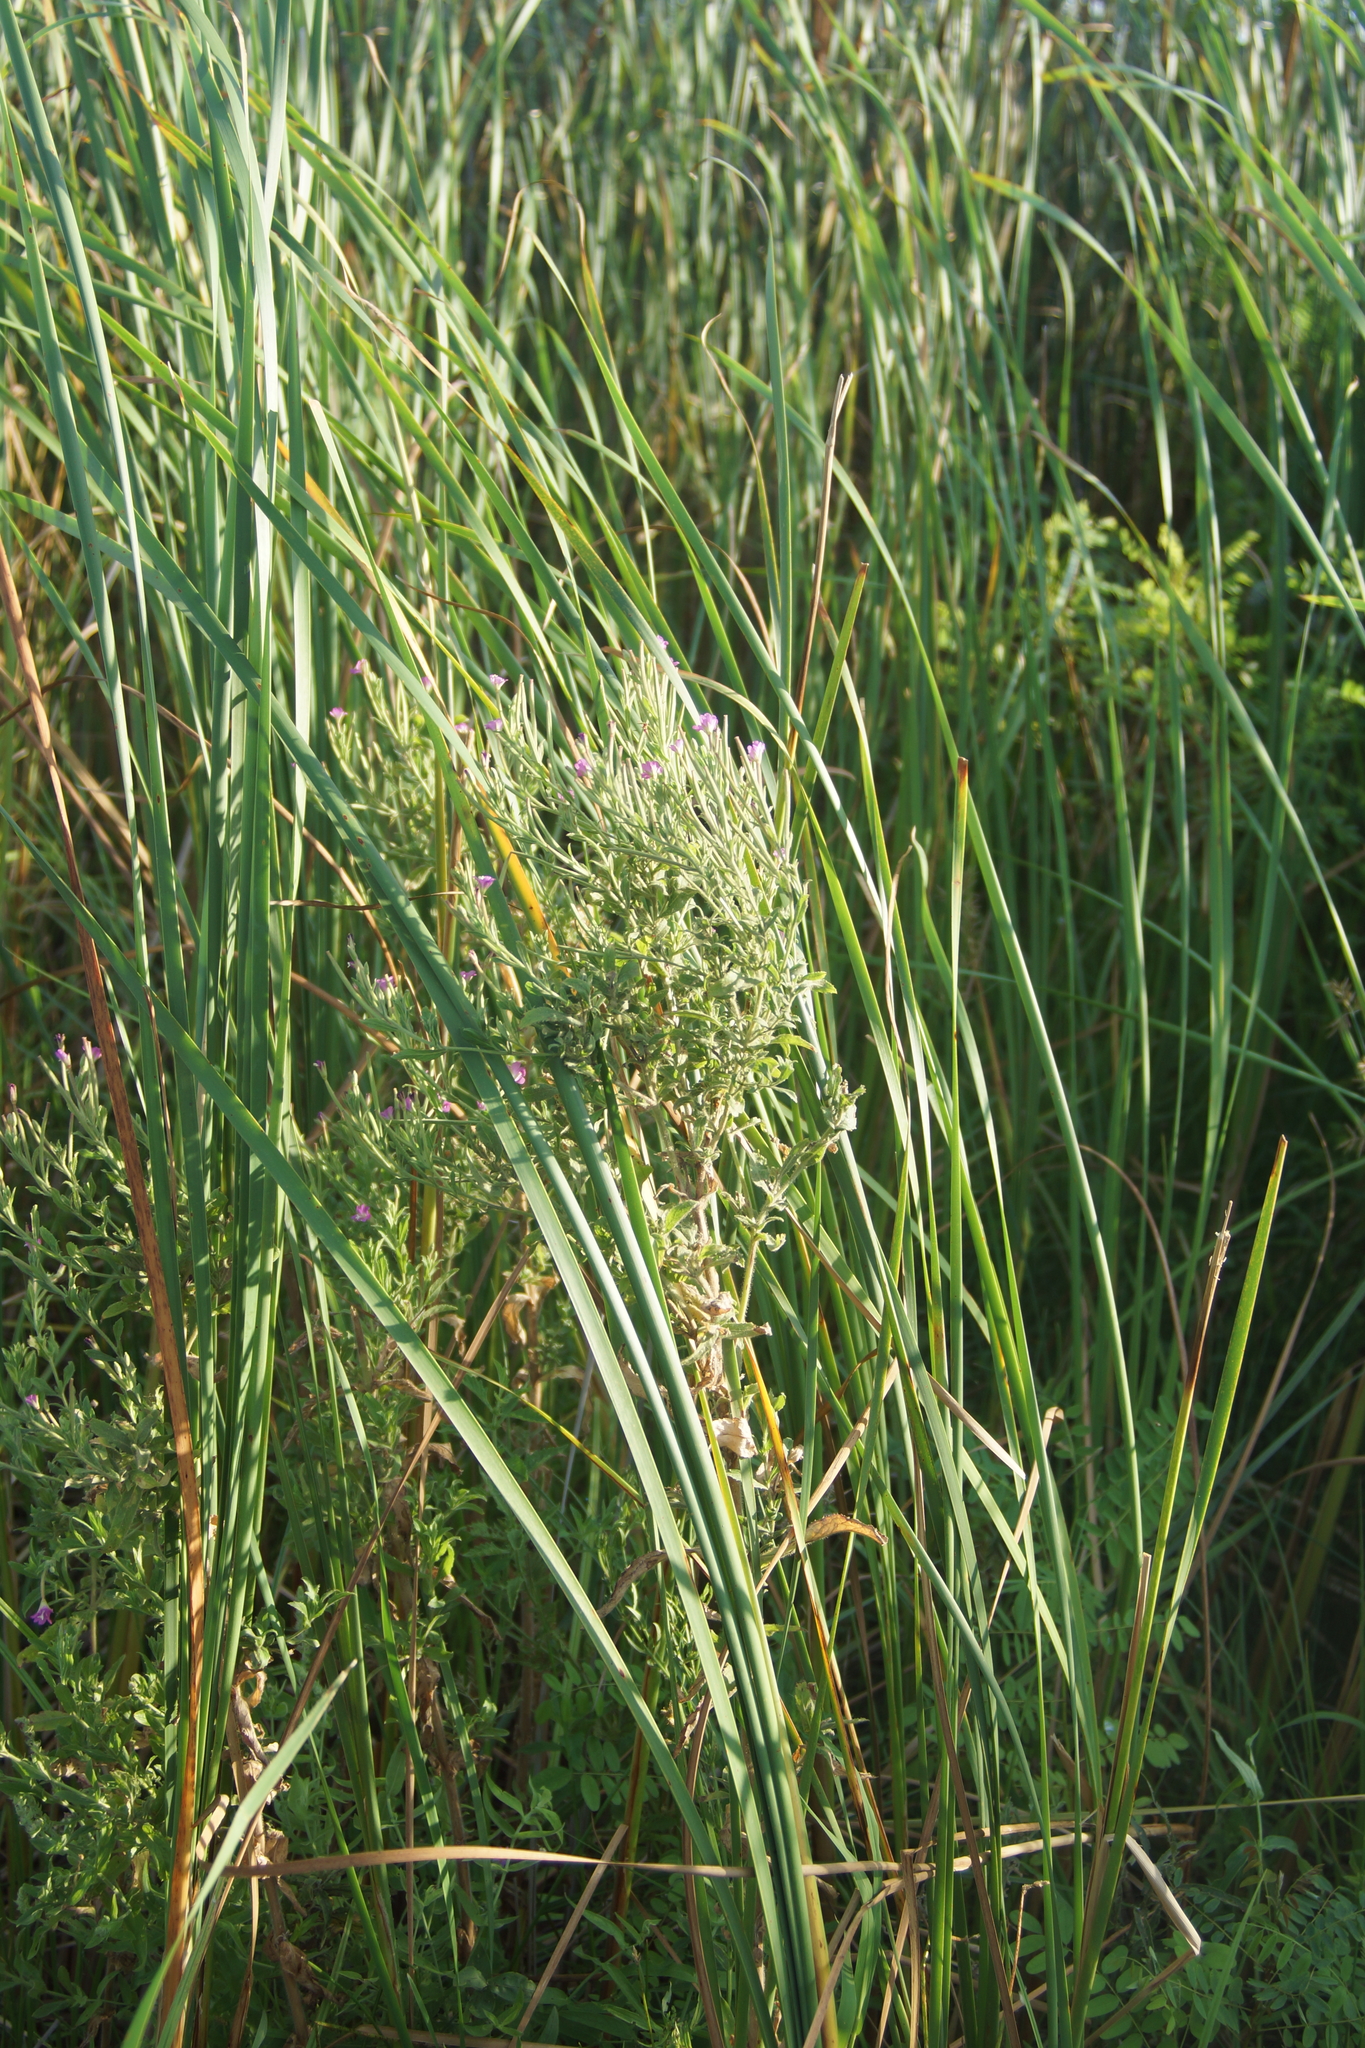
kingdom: Plantae
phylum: Tracheophyta
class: Magnoliopsida
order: Myrtales
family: Onagraceae
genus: Epilobium
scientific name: Epilobium hirsutum
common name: Great willowherb
